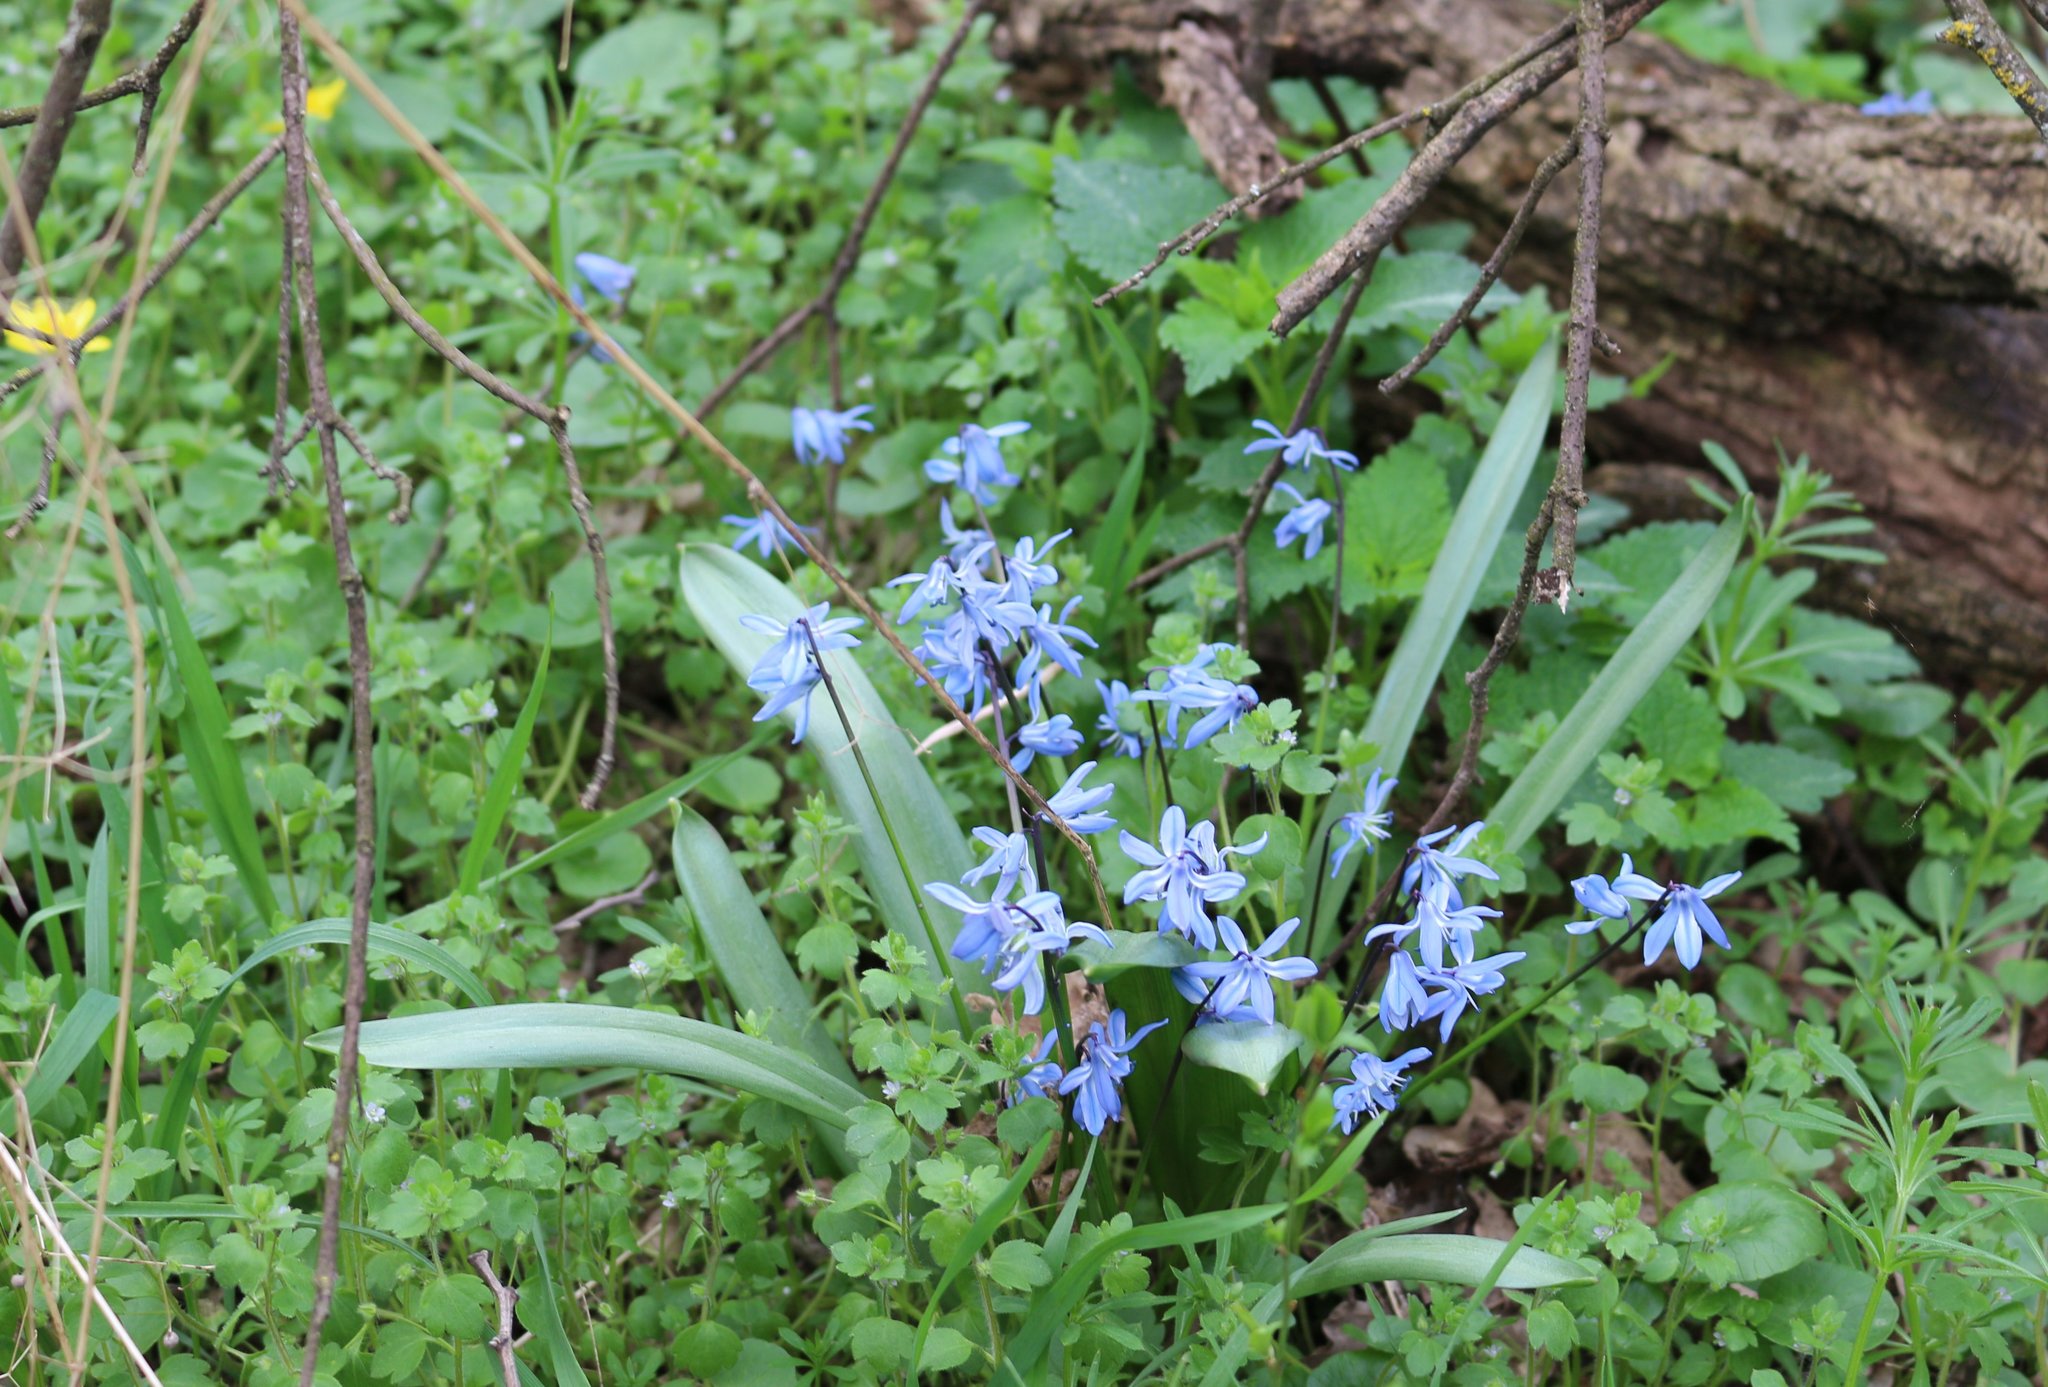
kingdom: Plantae
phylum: Tracheophyta
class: Liliopsida
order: Asparagales
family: Asparagaceae
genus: Scilla
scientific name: Scilla siberica
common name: Siberian squill
